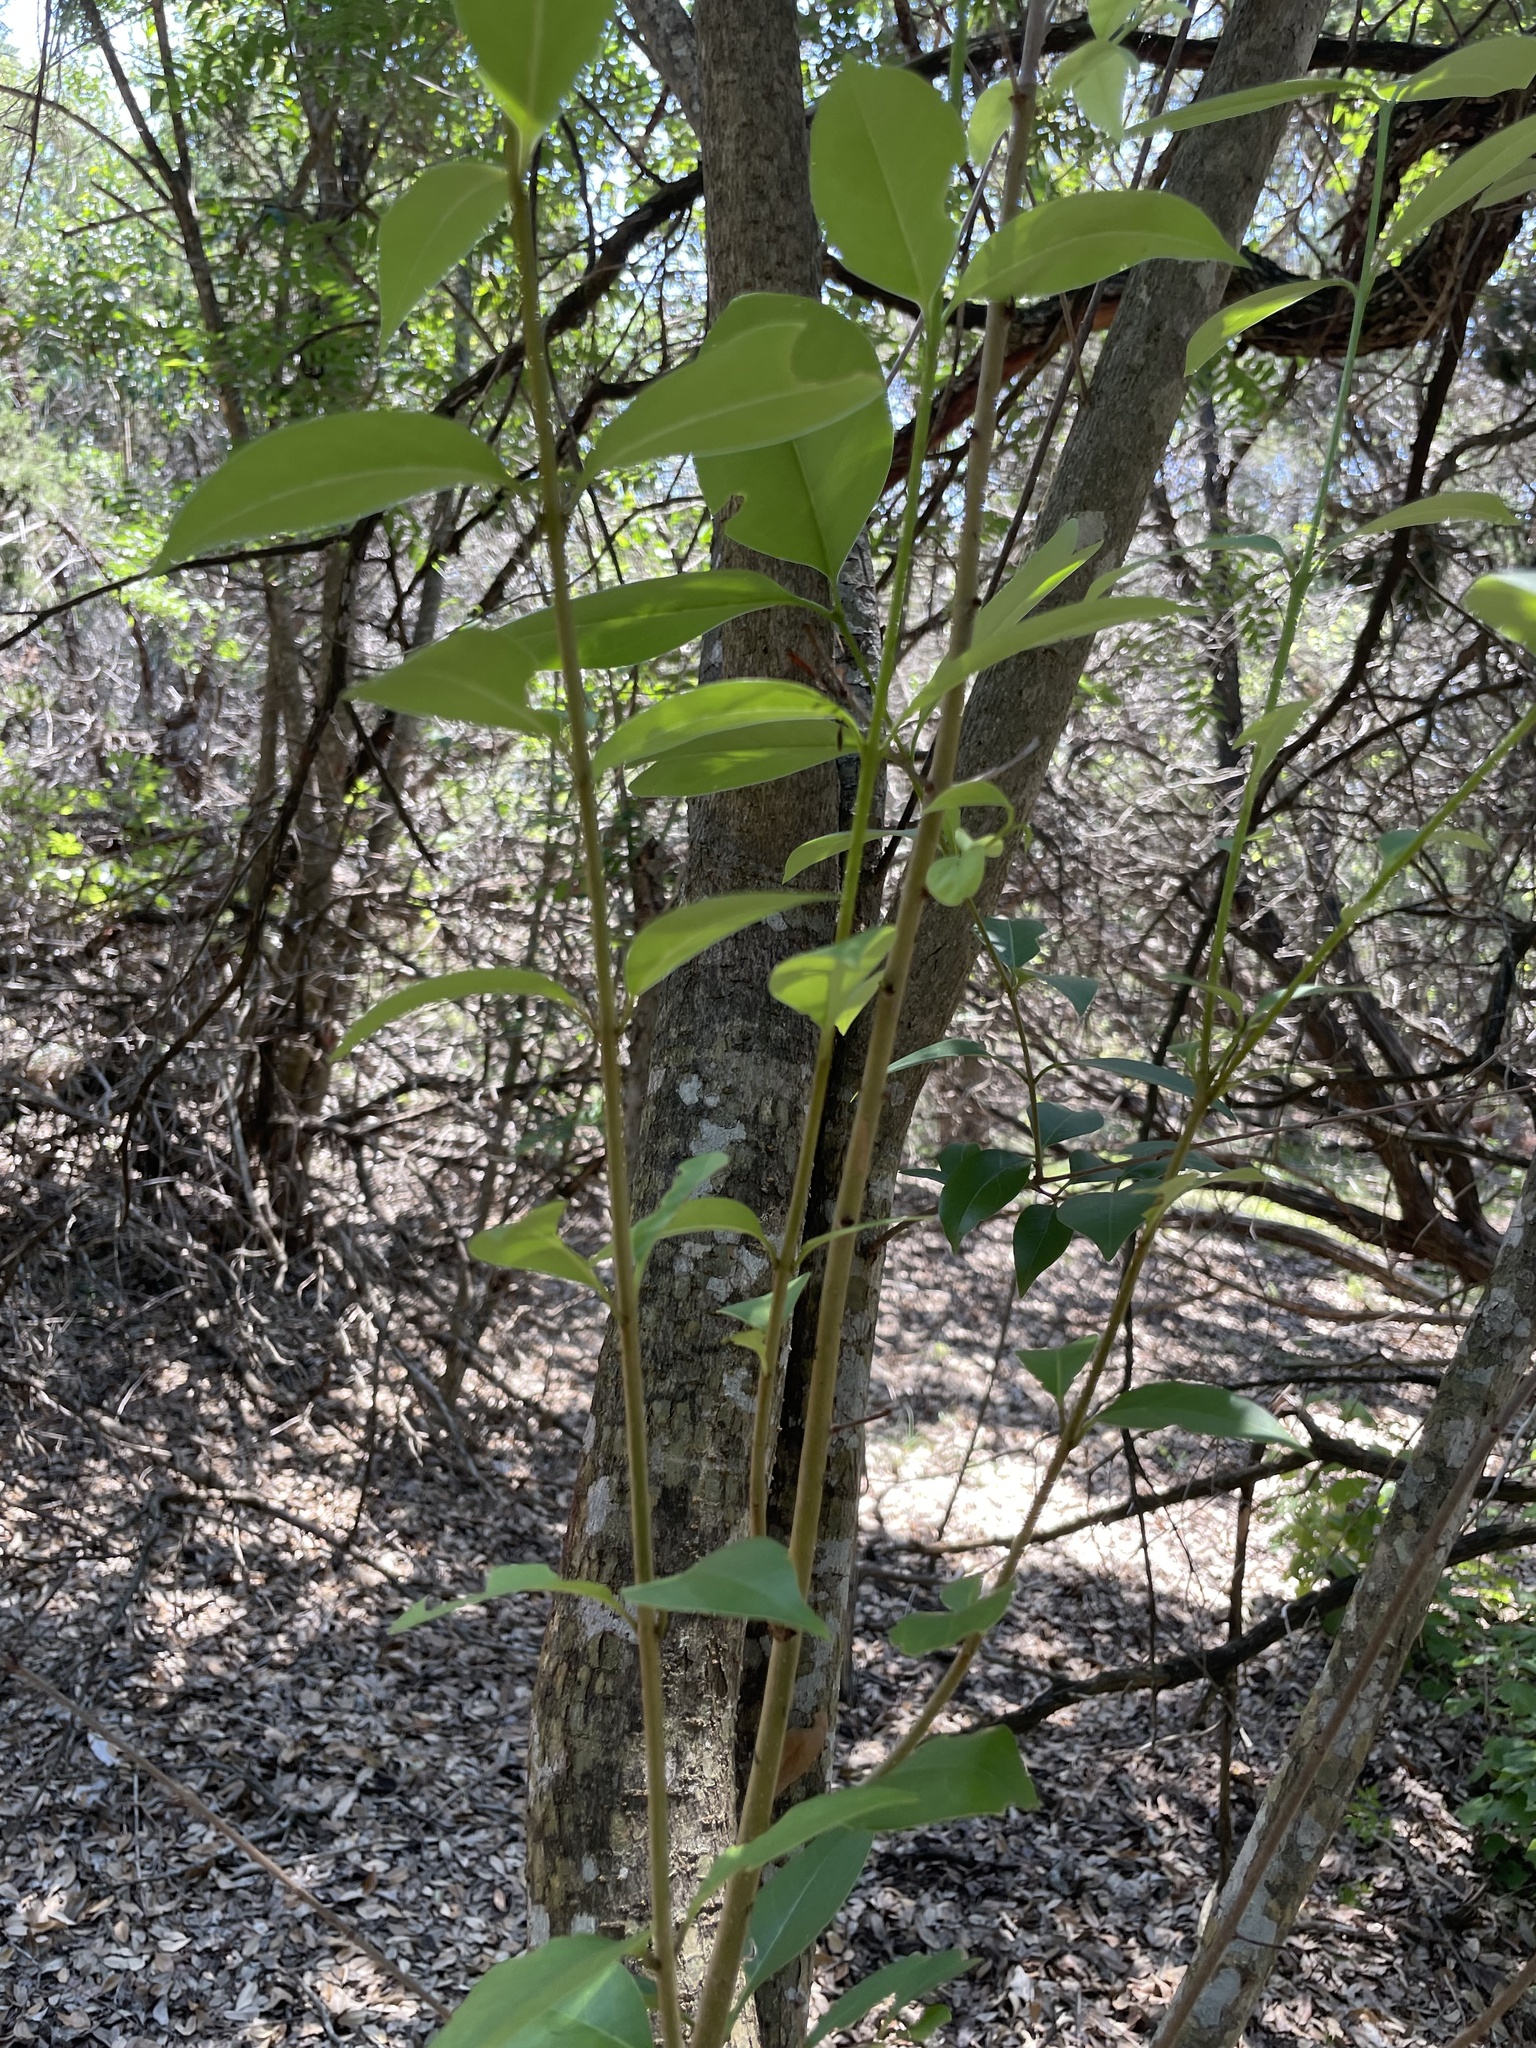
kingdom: Plantae
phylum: Tracheophyta
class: Magnoliopsida
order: Lamiales
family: Oleaceae
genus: Ligustrum
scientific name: Ligustrum lucidum
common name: Glossy privet
